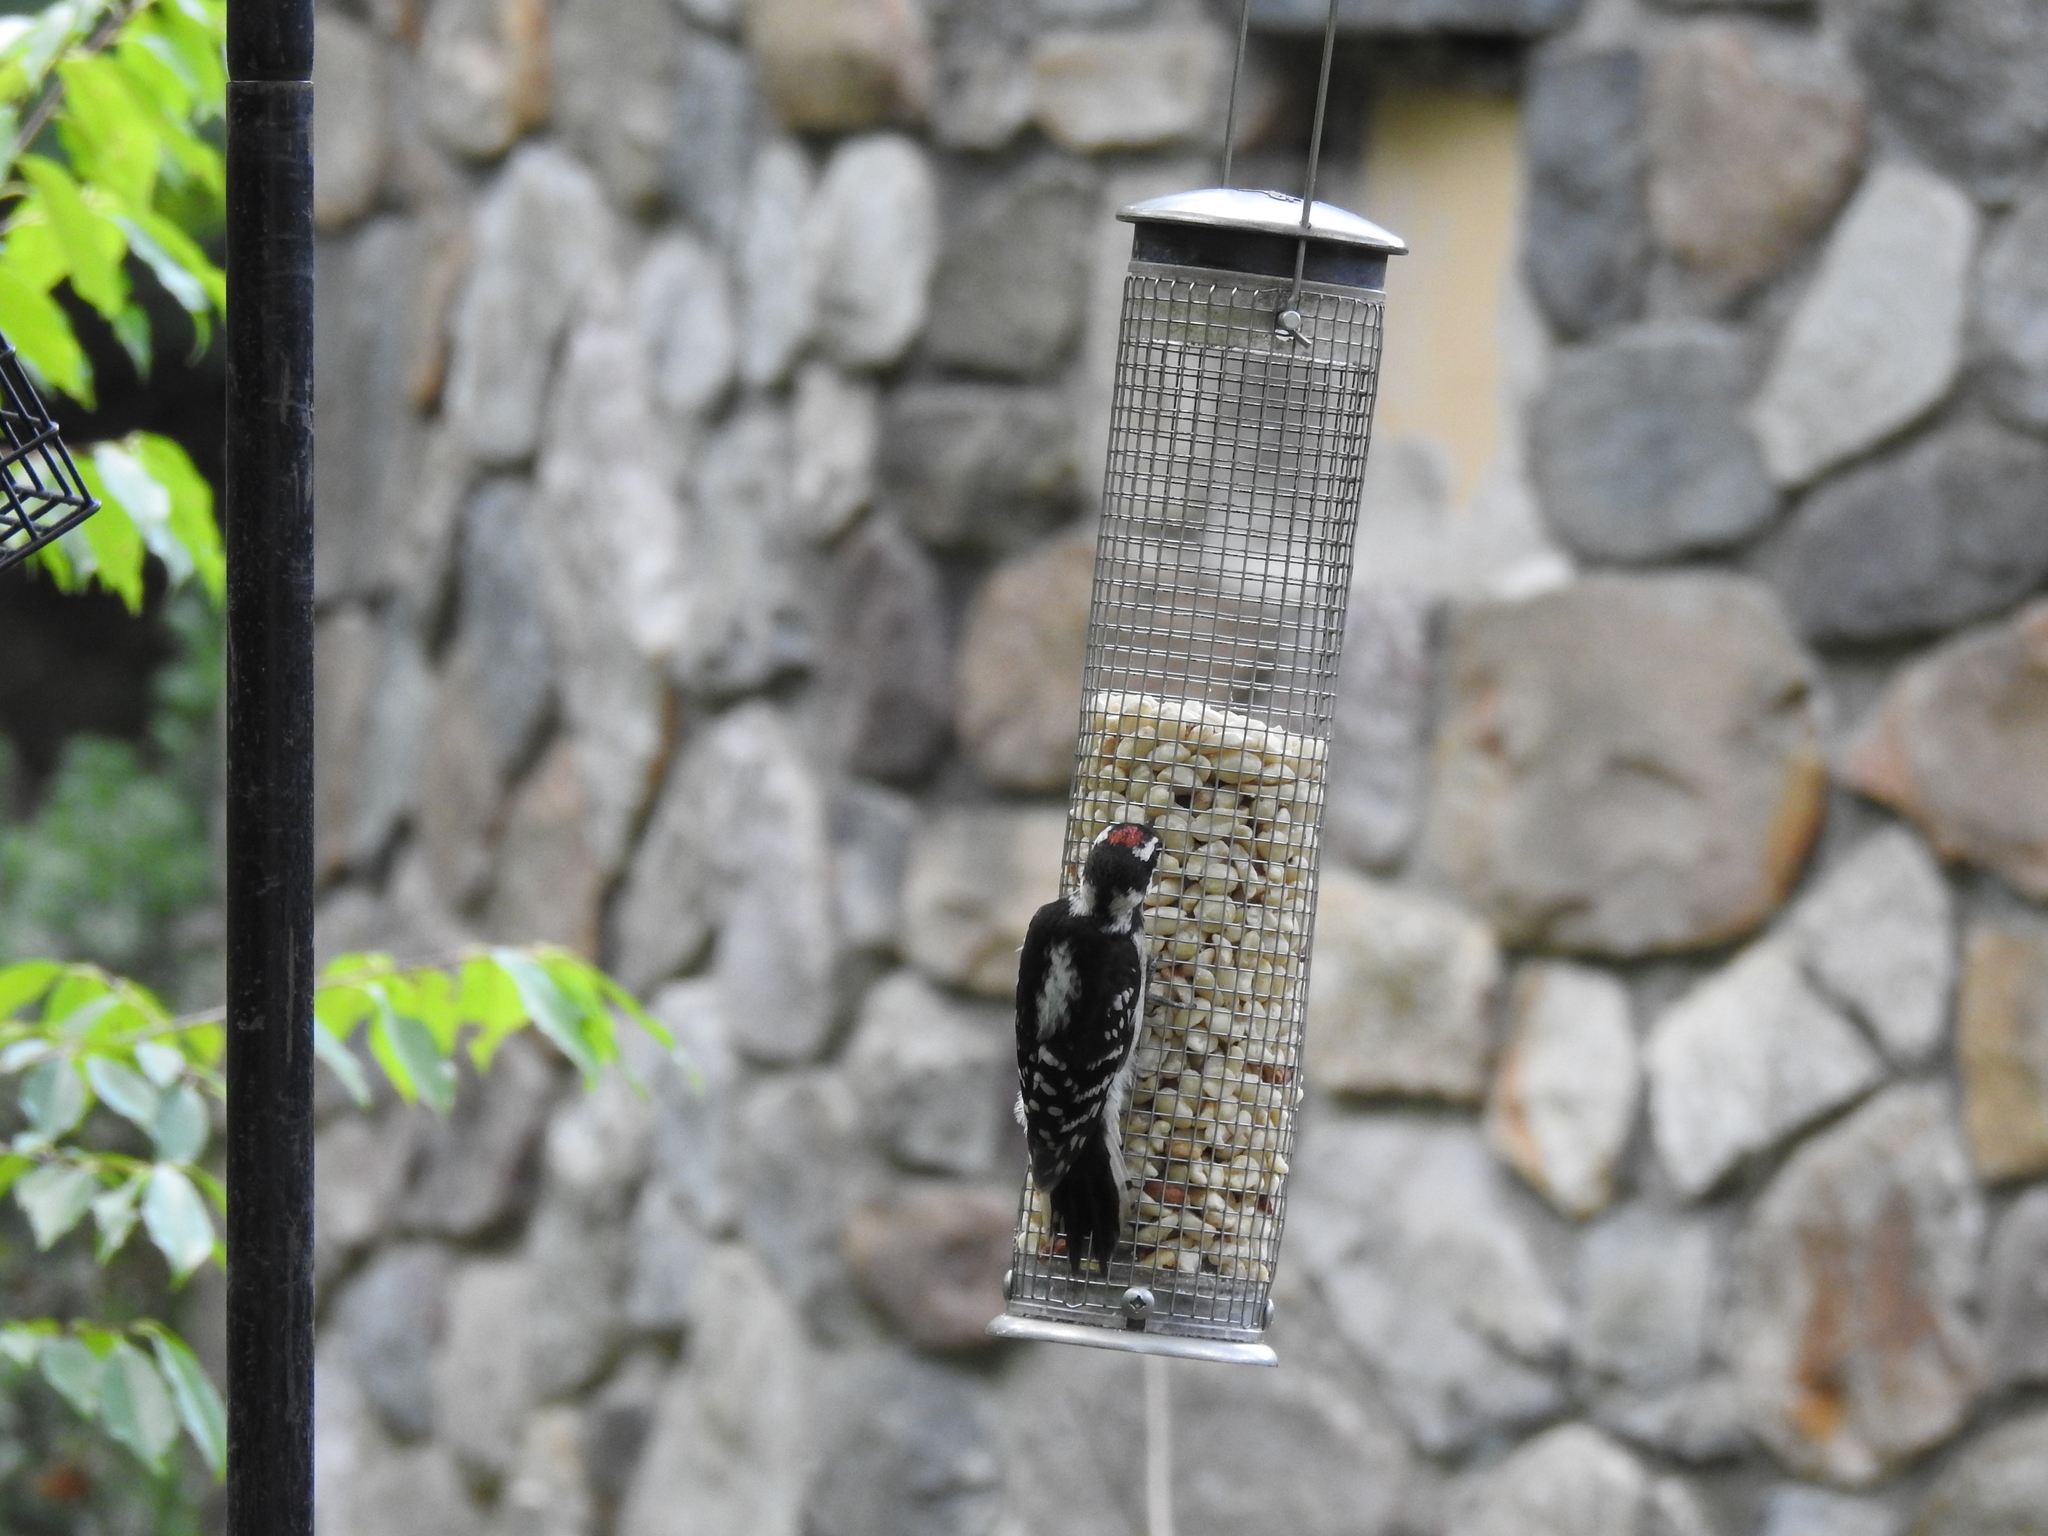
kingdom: Animalia
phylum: Chordata
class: Aves
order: Piciformes
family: Picidae
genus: Dryobates
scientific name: Dryobates pubescens
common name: Downy woodpecker
